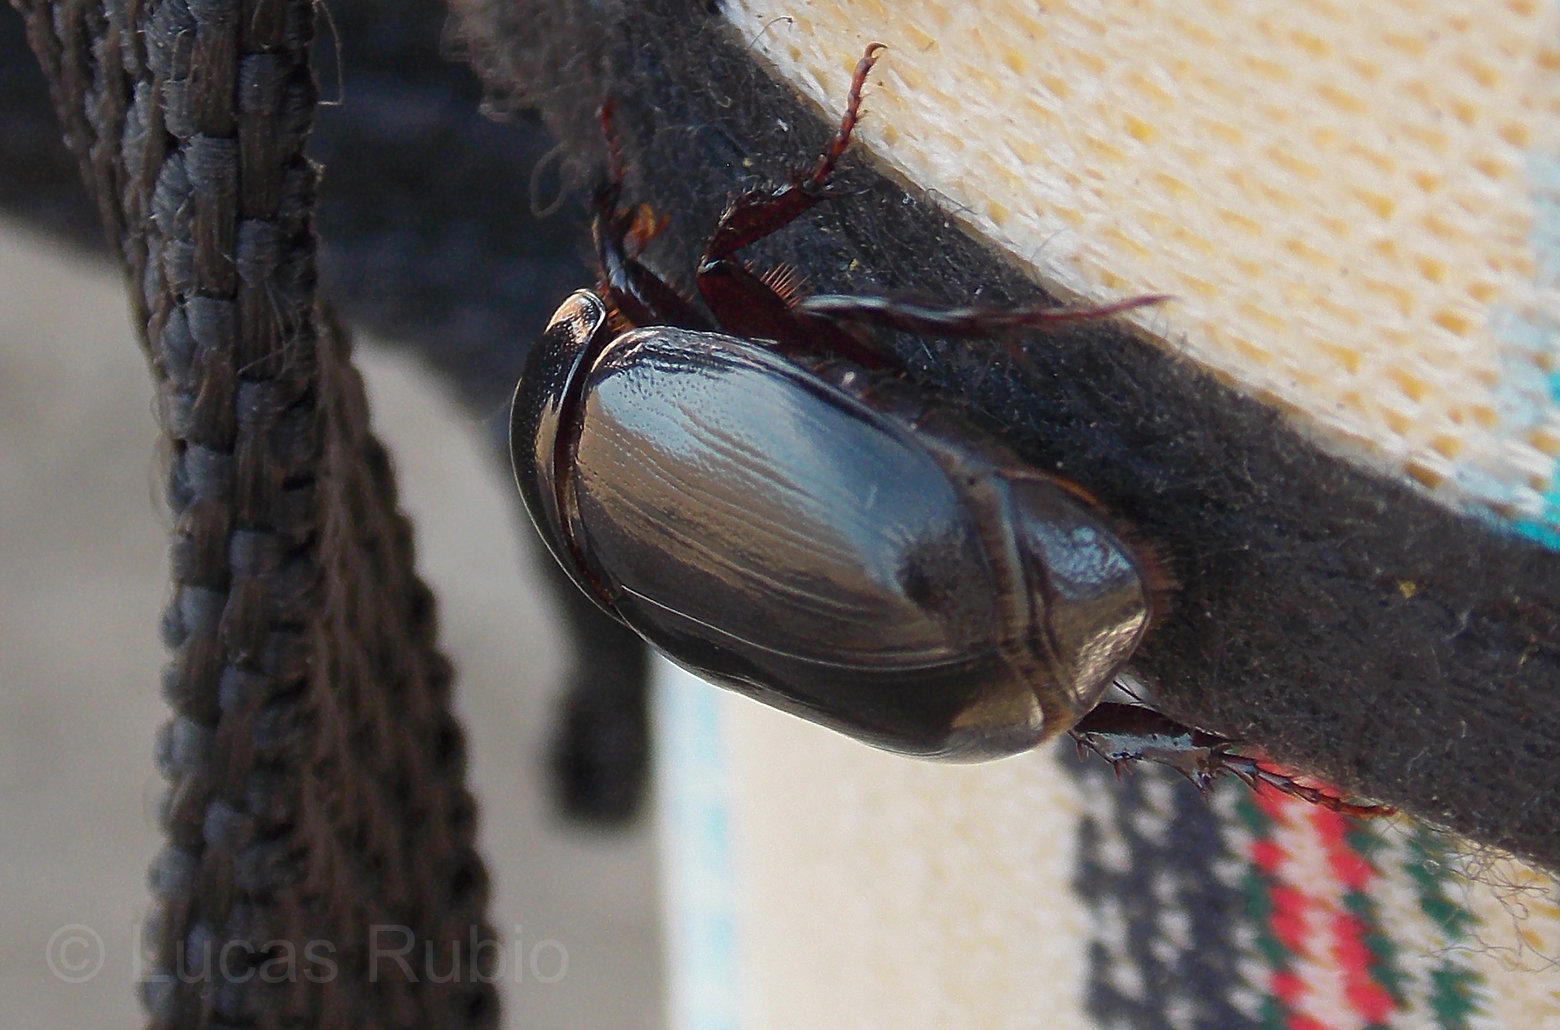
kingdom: Animalia
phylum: Arthropoda
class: Insecta
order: Coleoptera
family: Scarabaeidae
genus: Dyscinetus
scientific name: Dyscinetus rugifrons
